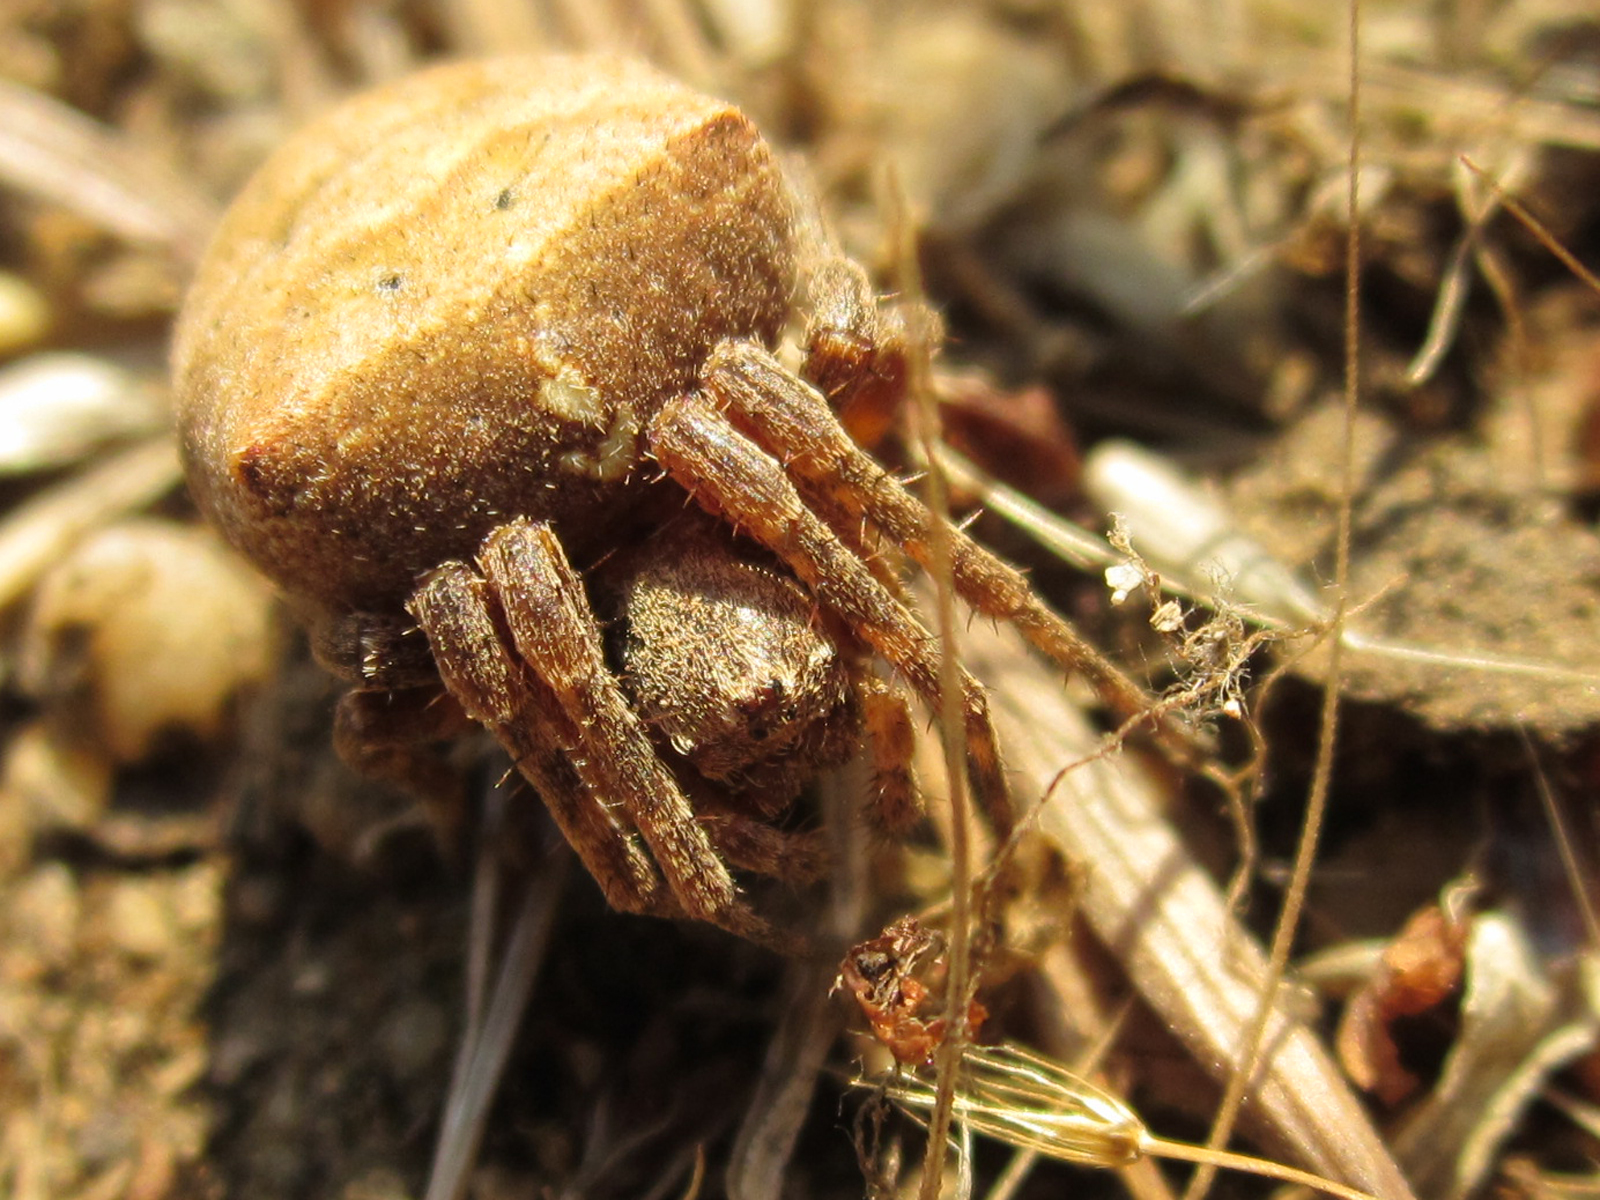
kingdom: Animalia
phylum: Arthropoda
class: Arachnida
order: Araneae
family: Araneidae
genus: Ocrepeira
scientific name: Ocrepeira venustula
